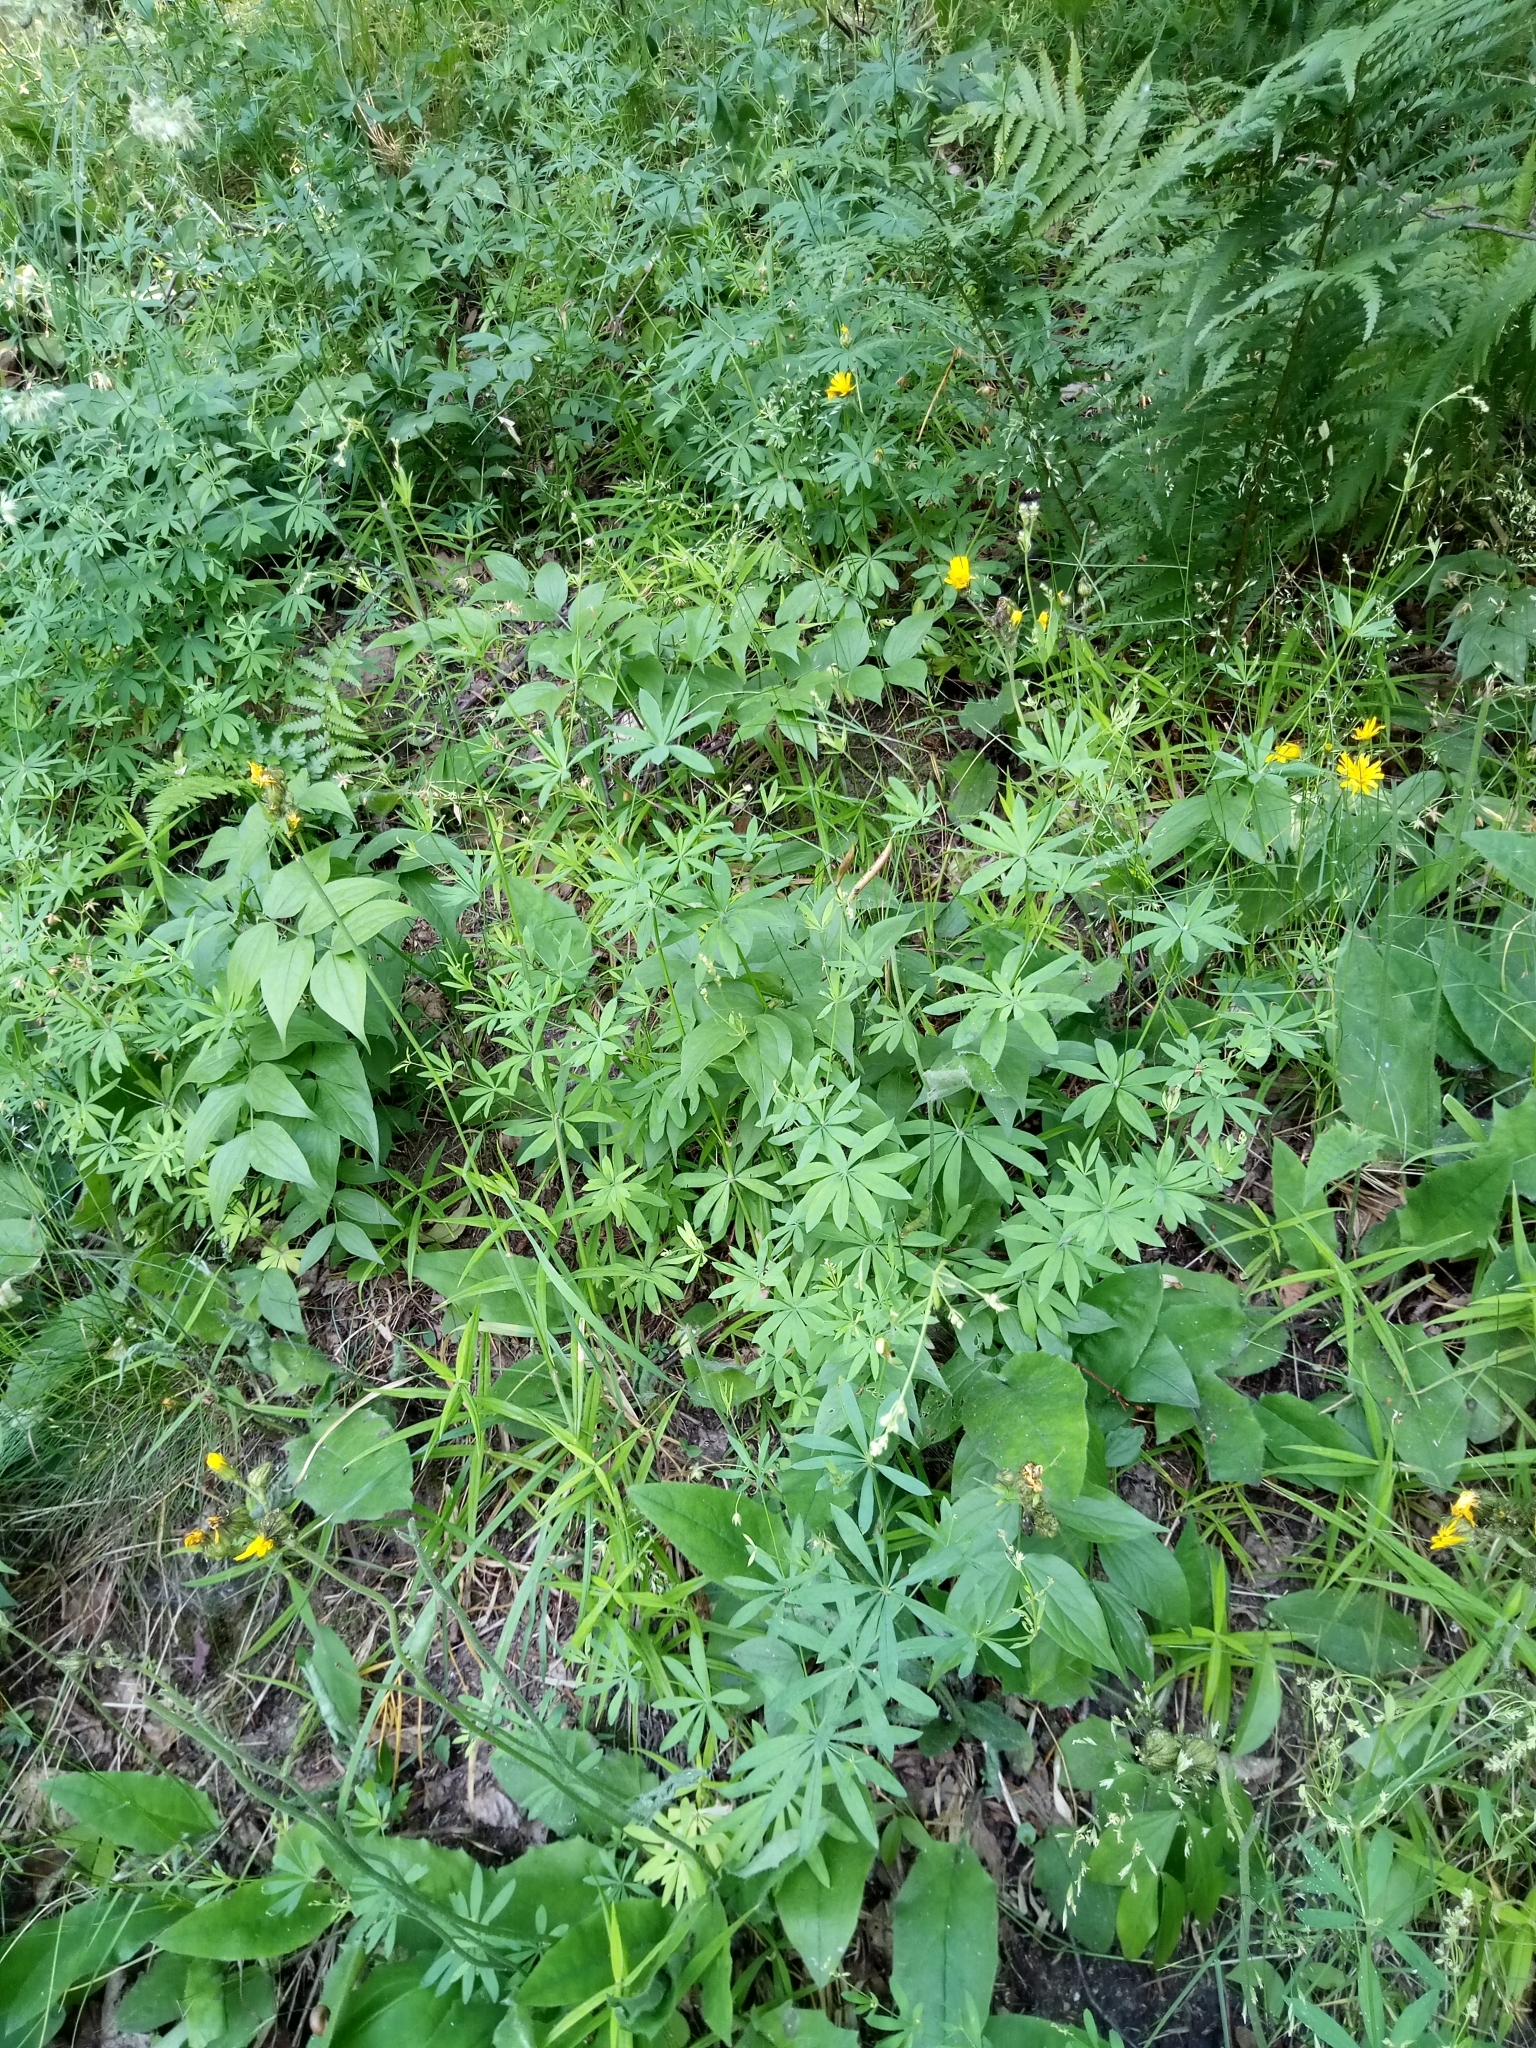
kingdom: Plantae
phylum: Tracheophyta
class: Magnoliopsida
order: Gentianales
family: Rubiaceae
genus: Galium
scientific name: Galium sylvaticum
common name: Wood bedstraw
